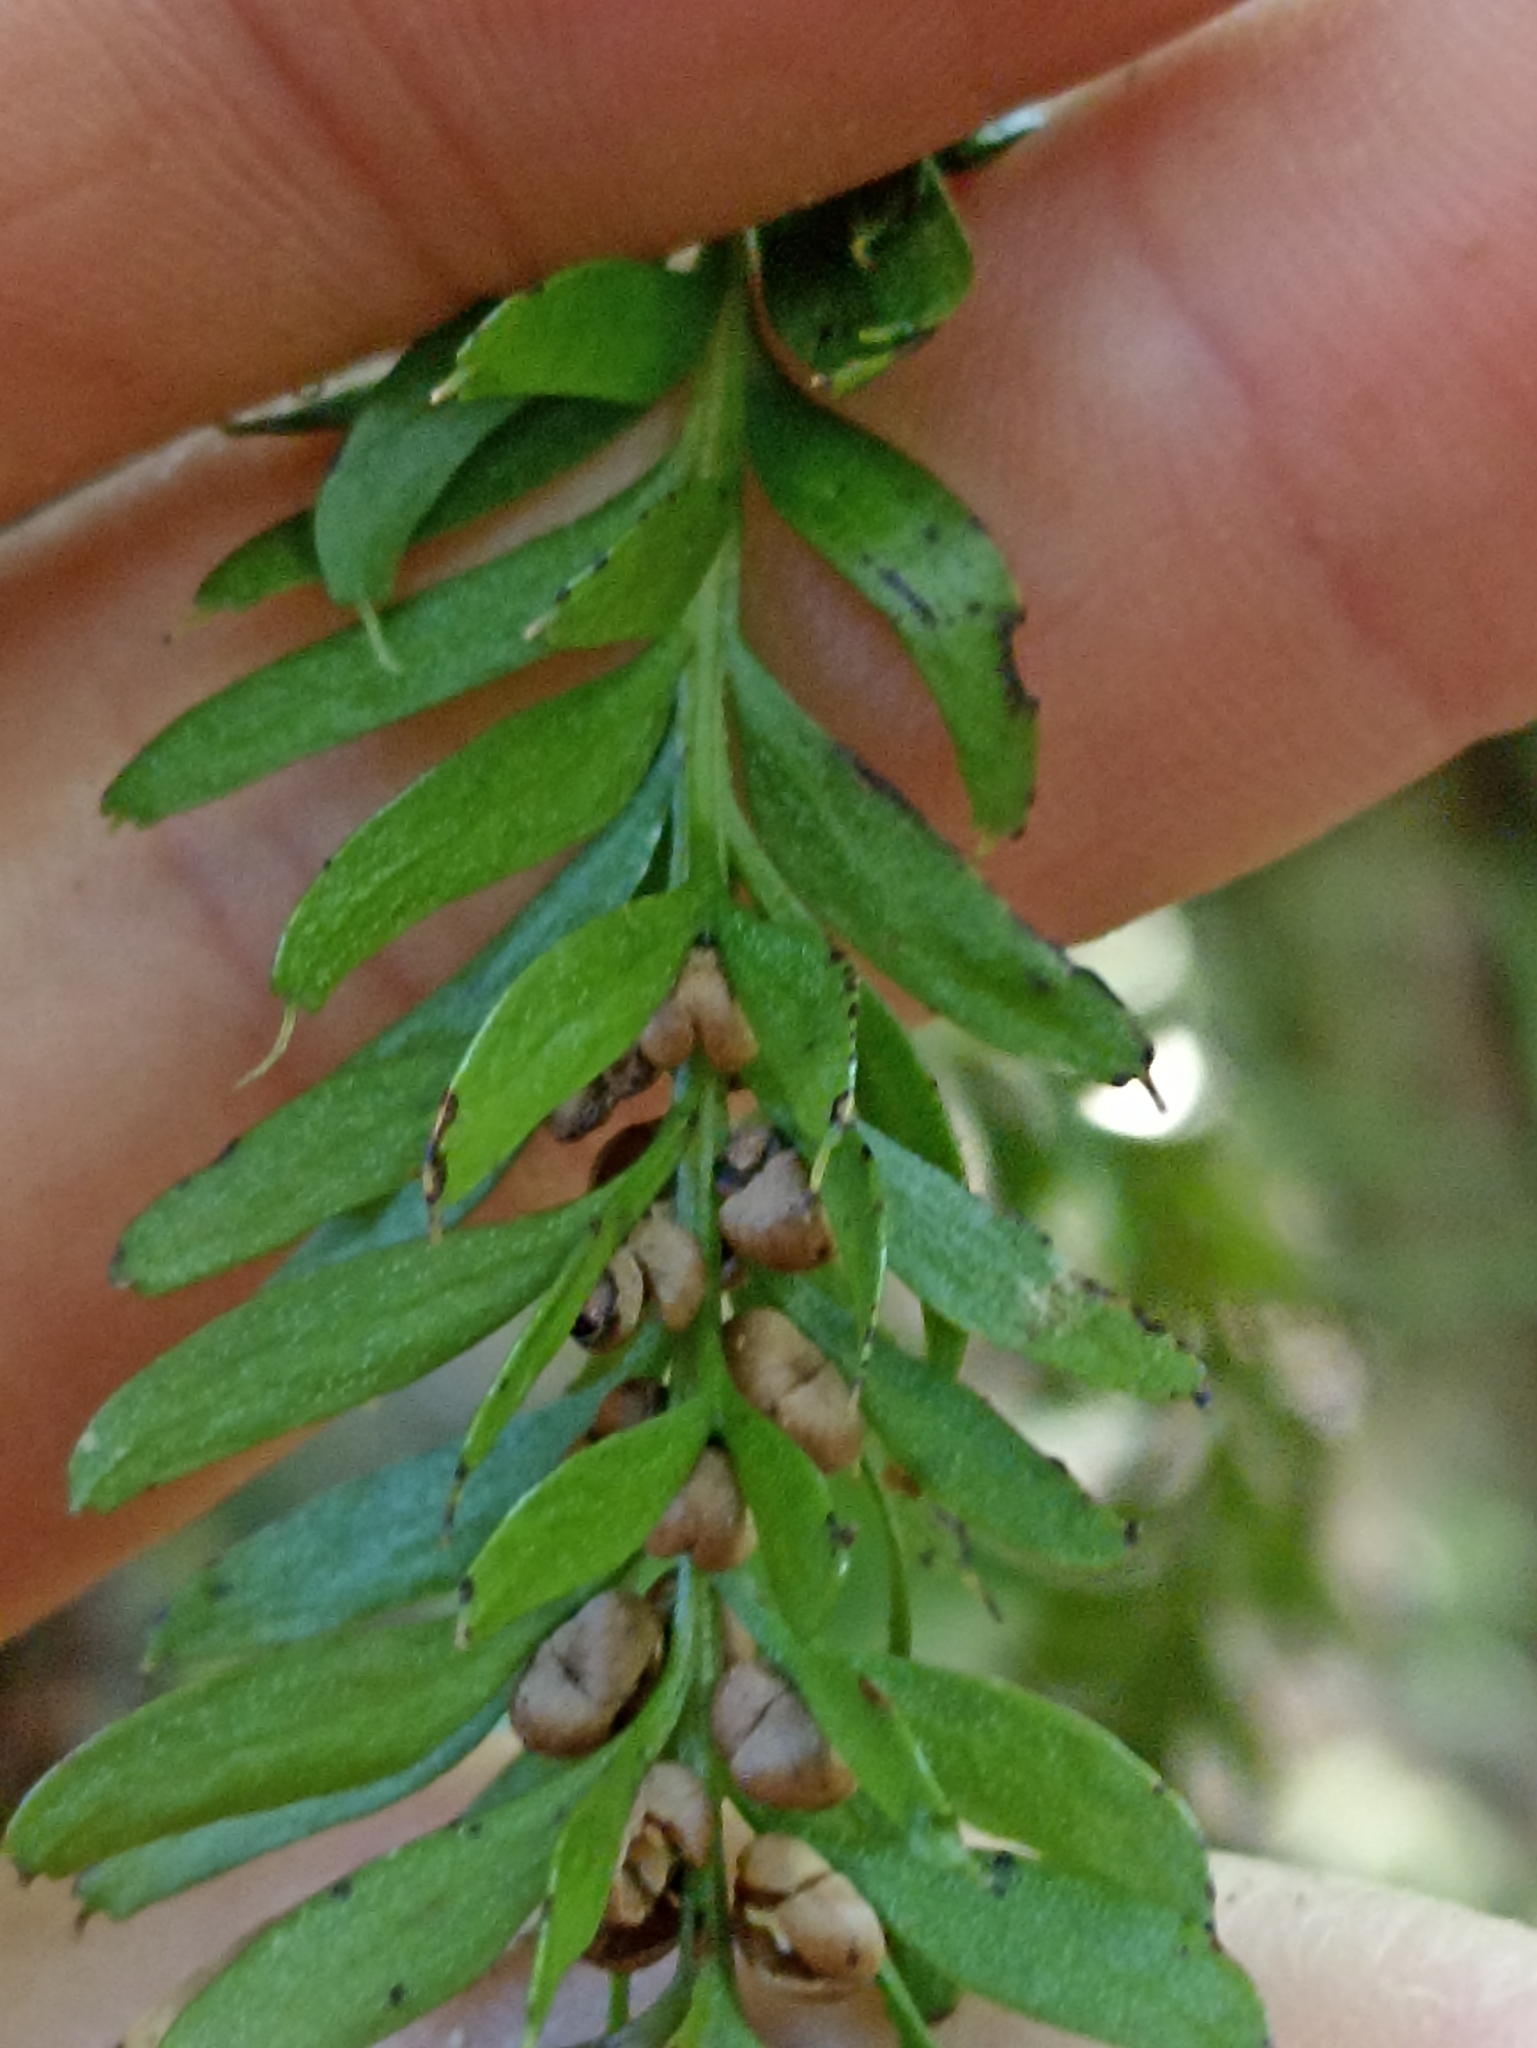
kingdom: Plantae
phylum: Tracheophyta
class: Polypodiopsida
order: Psilotales
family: Psilotaceae
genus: Tmesipteris
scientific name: Tmesipteris sigmatifolia
